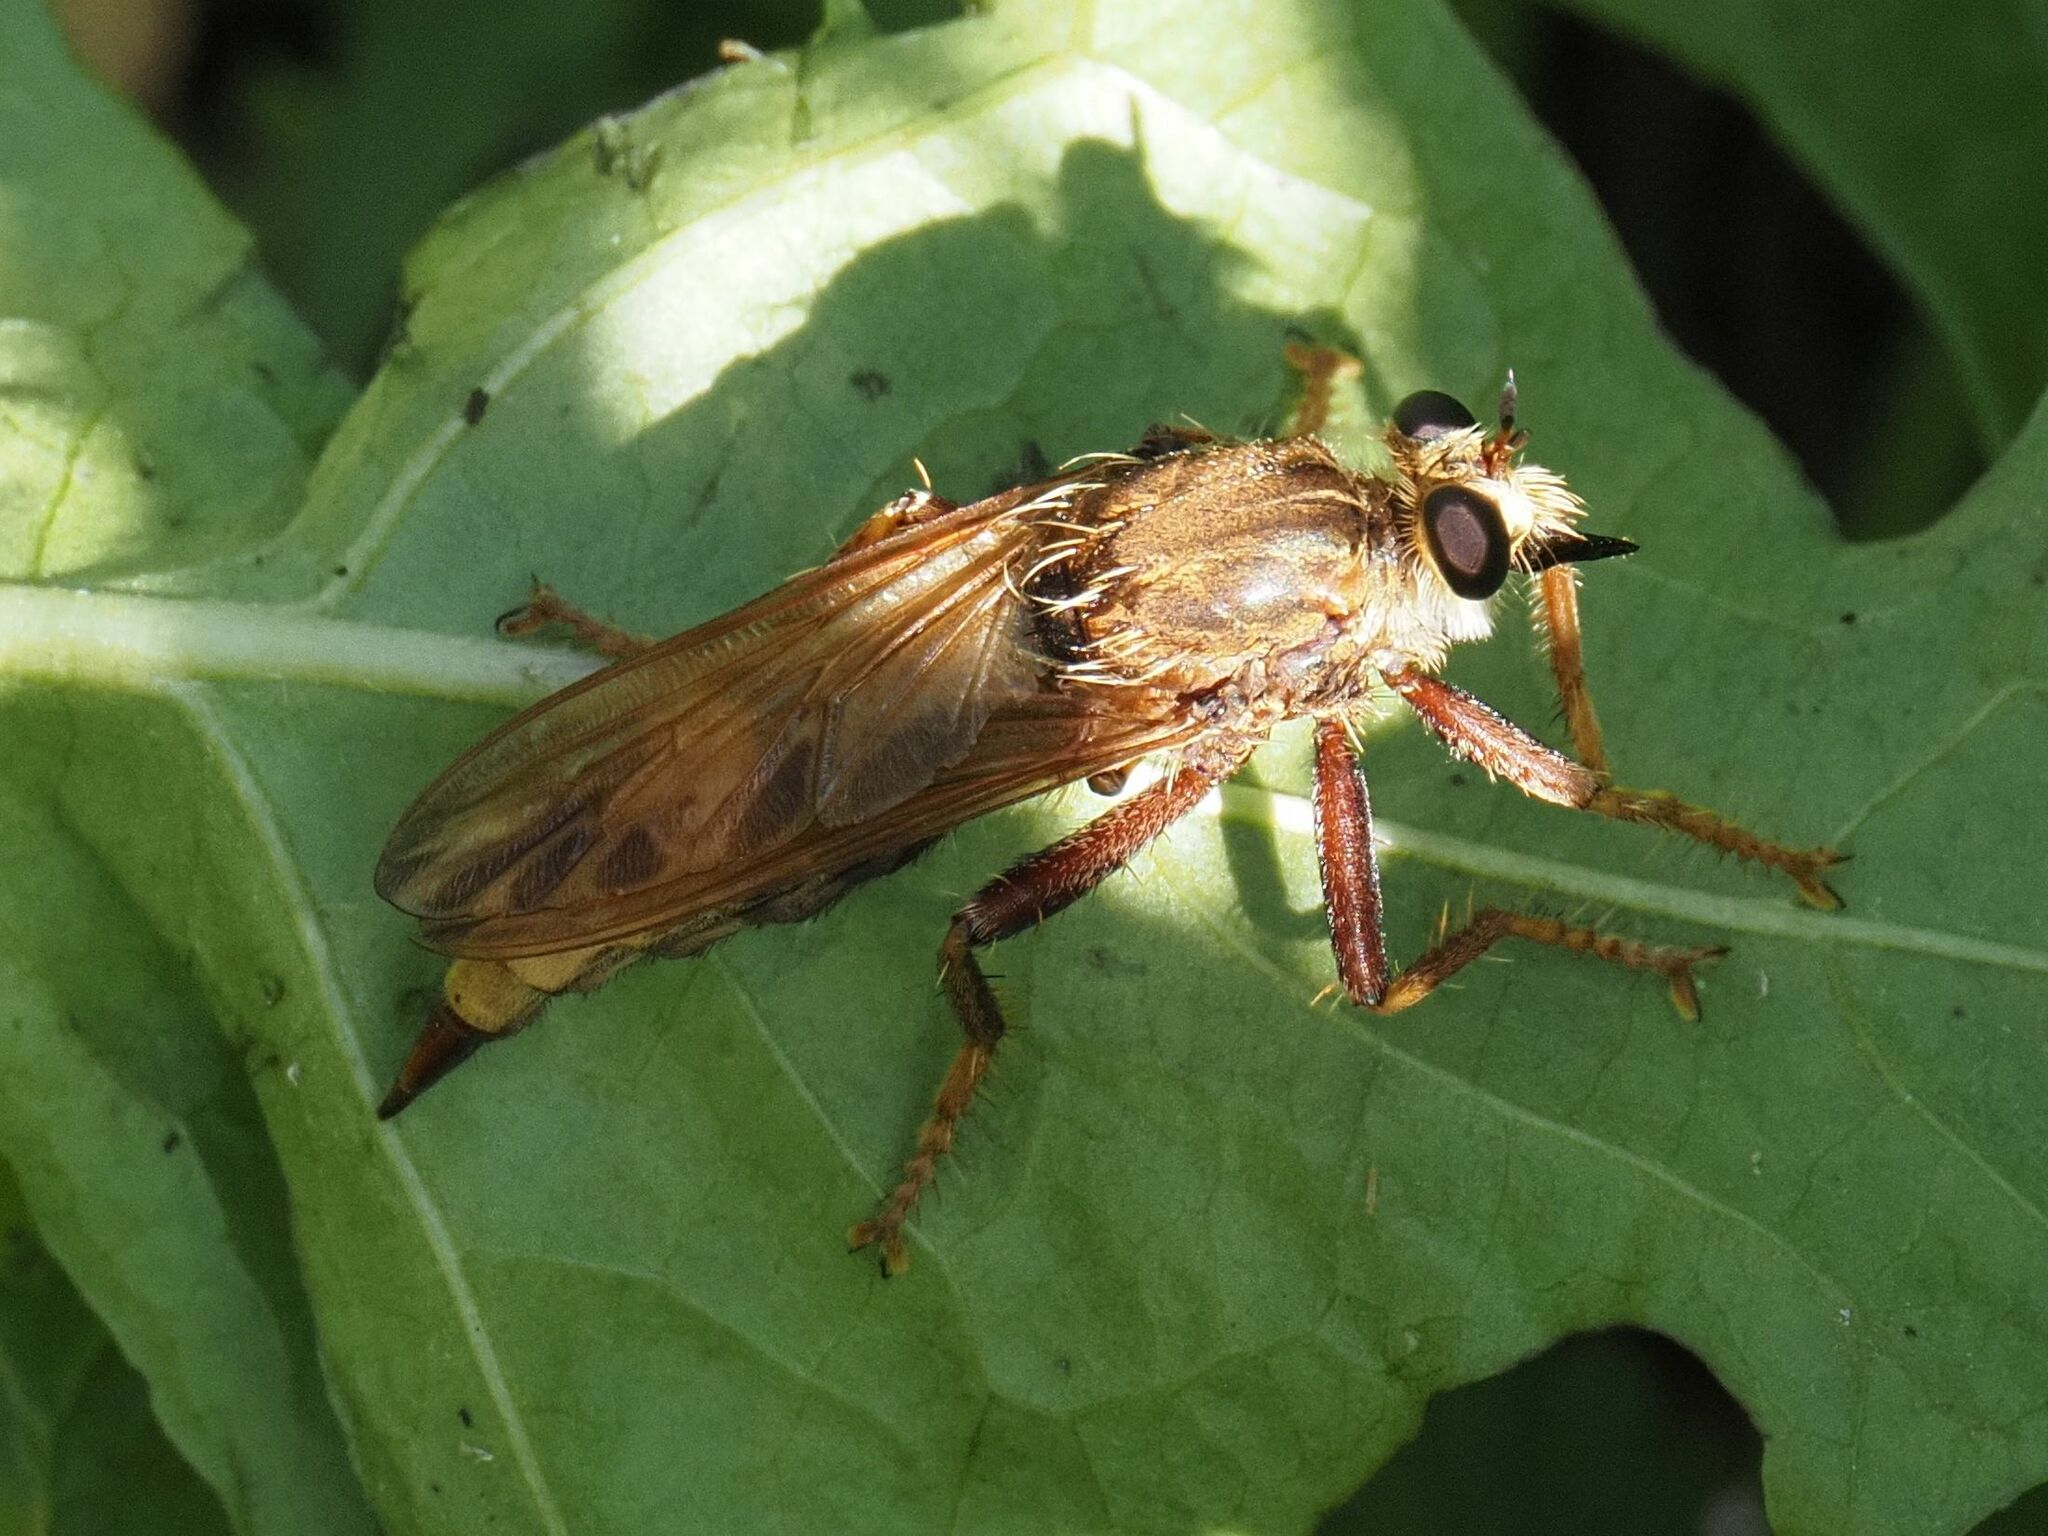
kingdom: Animalia
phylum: Arthropoda
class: Insecta
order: Diptera
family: Asilidae
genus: Asilus
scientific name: Asilus crabroniformis
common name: Hornet robberfly
